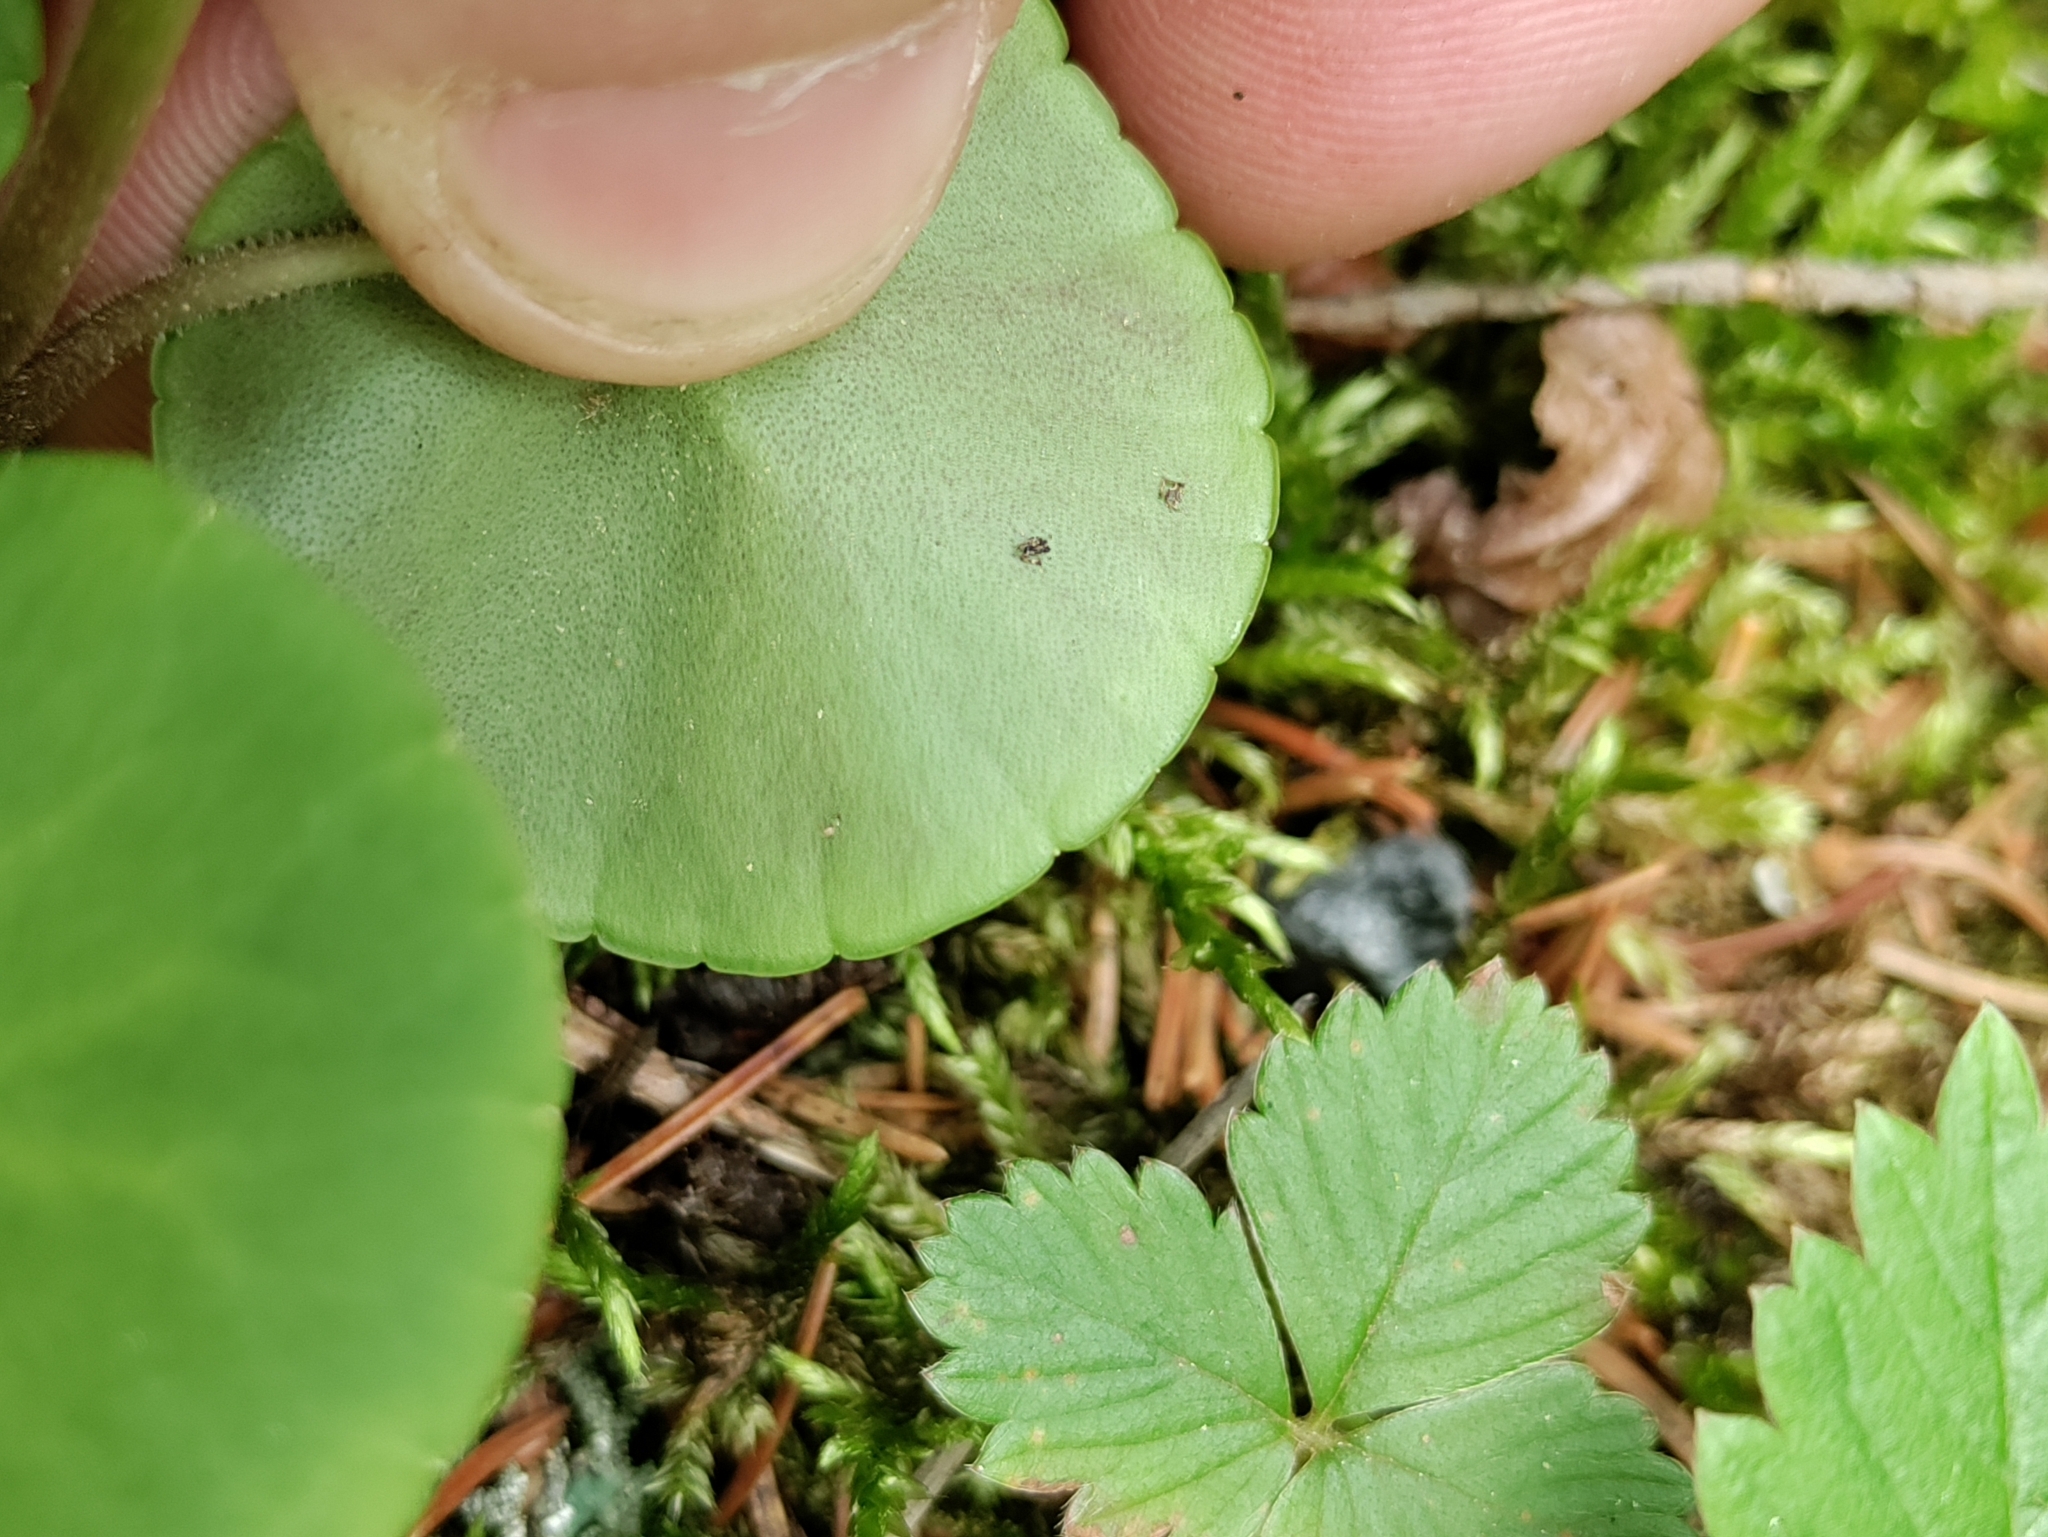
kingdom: Plantae
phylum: Tracheophyta
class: Magnoliopsida
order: Ericales
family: Primulaceae
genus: Soldanella
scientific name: Soldanella montana
